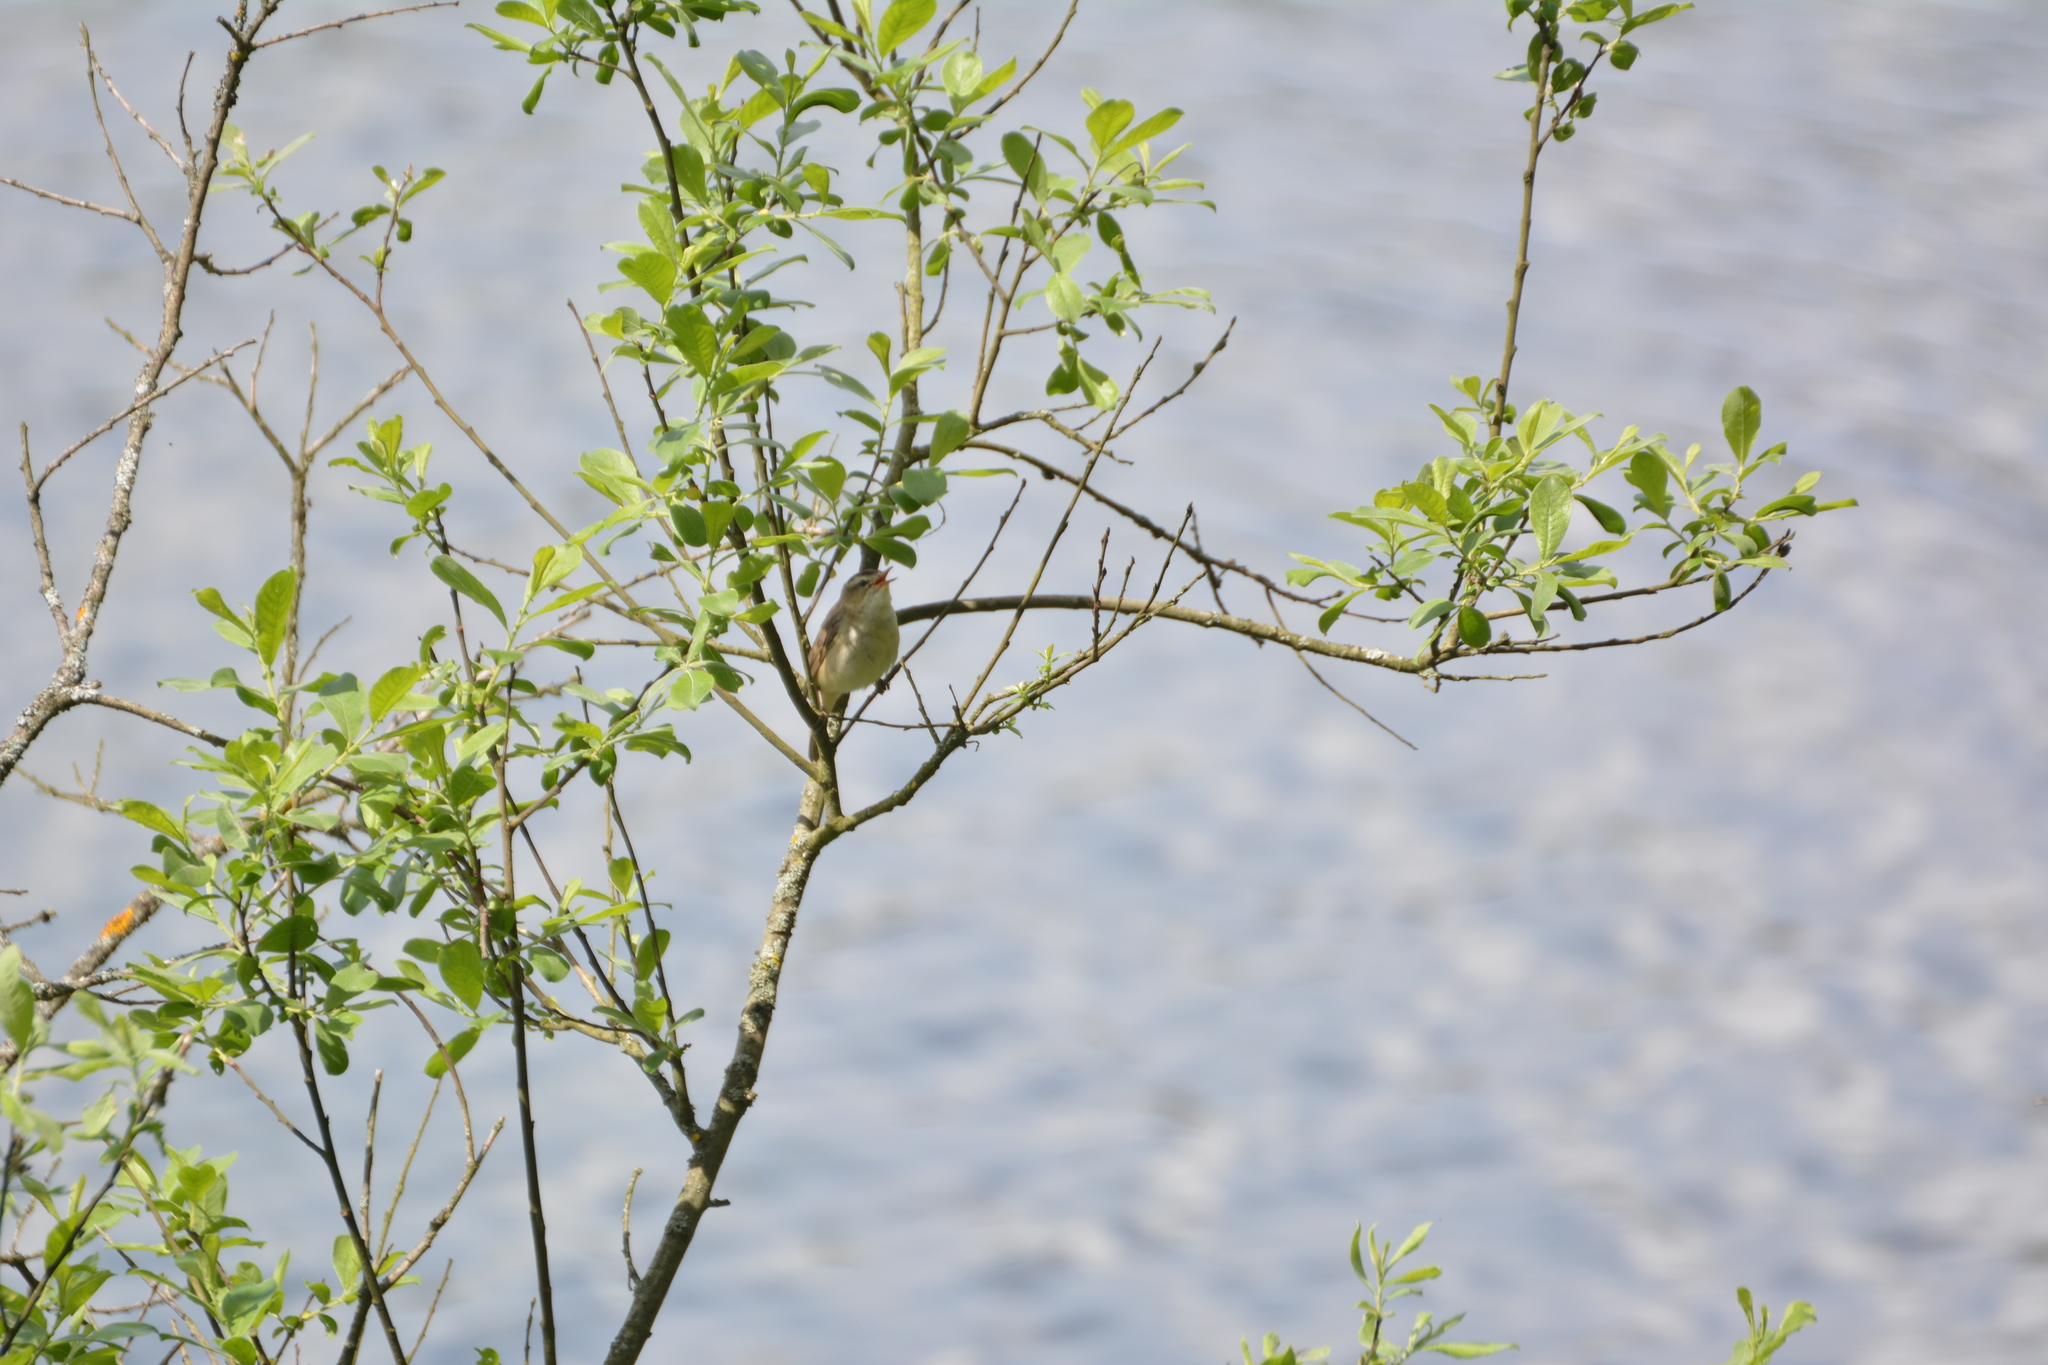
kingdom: Animalia
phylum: Chordata
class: Aves
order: Passeriformes
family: Acrocephalidae
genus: Acrocephalus
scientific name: Acrocephalus schoenobaenus
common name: Sedge warbler
